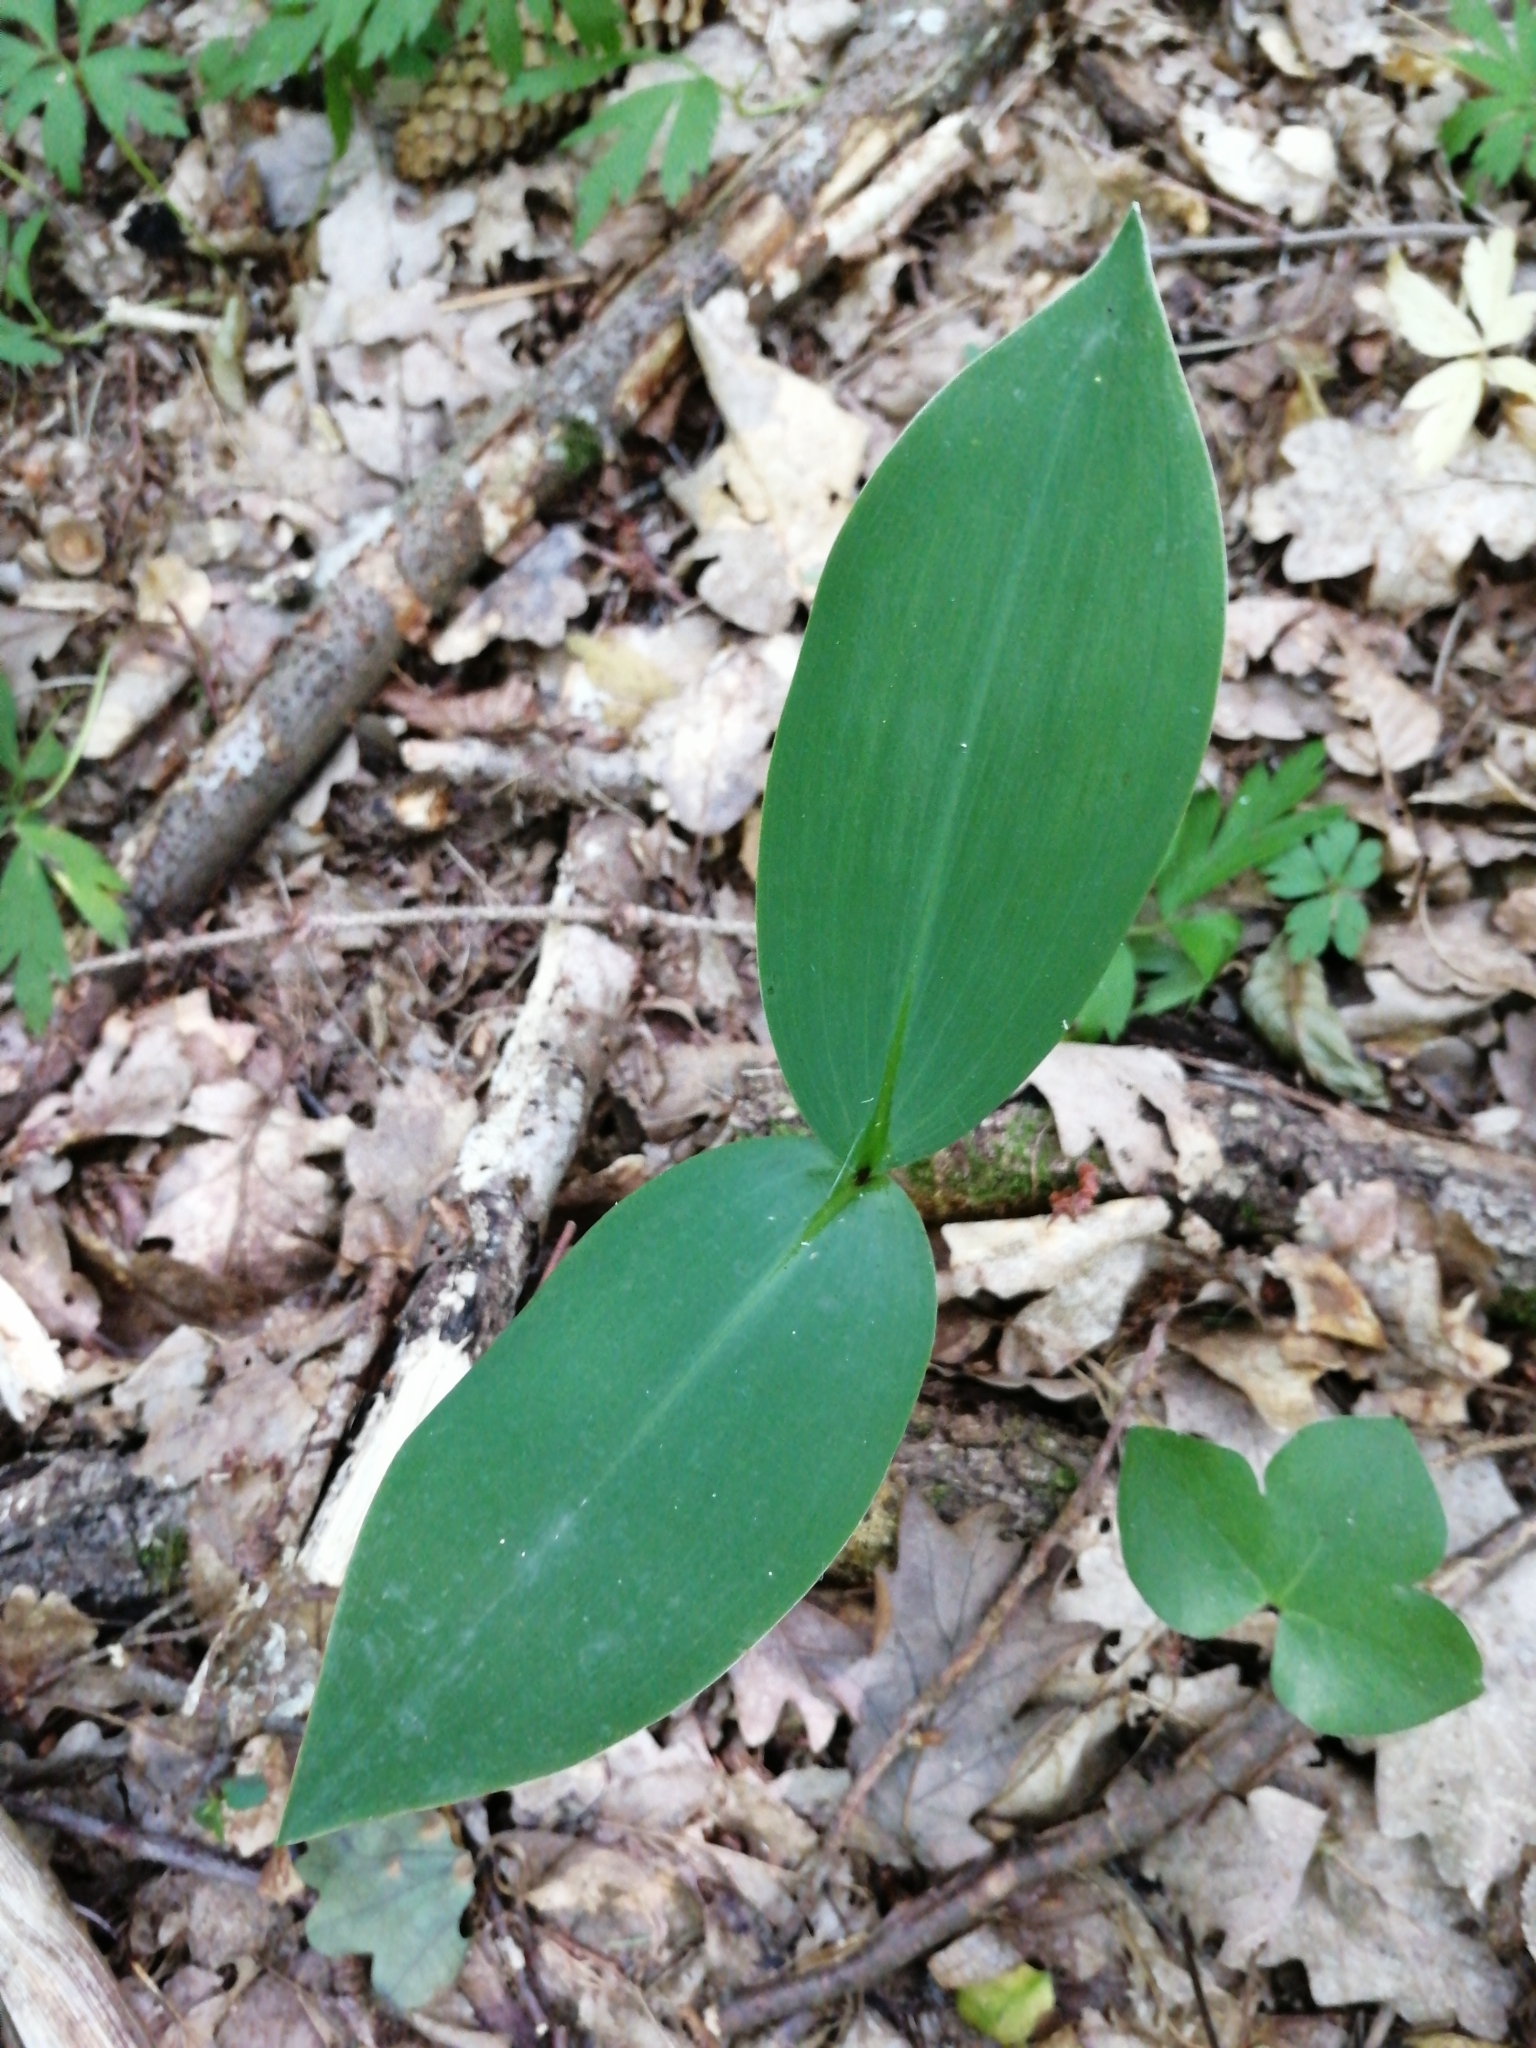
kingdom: Plantae
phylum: Tracheophyta
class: Liliopsida
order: Asparagales
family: Asparagaceae
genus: Convallaria
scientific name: Convallaria majalis
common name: Lily-of-the-valley
